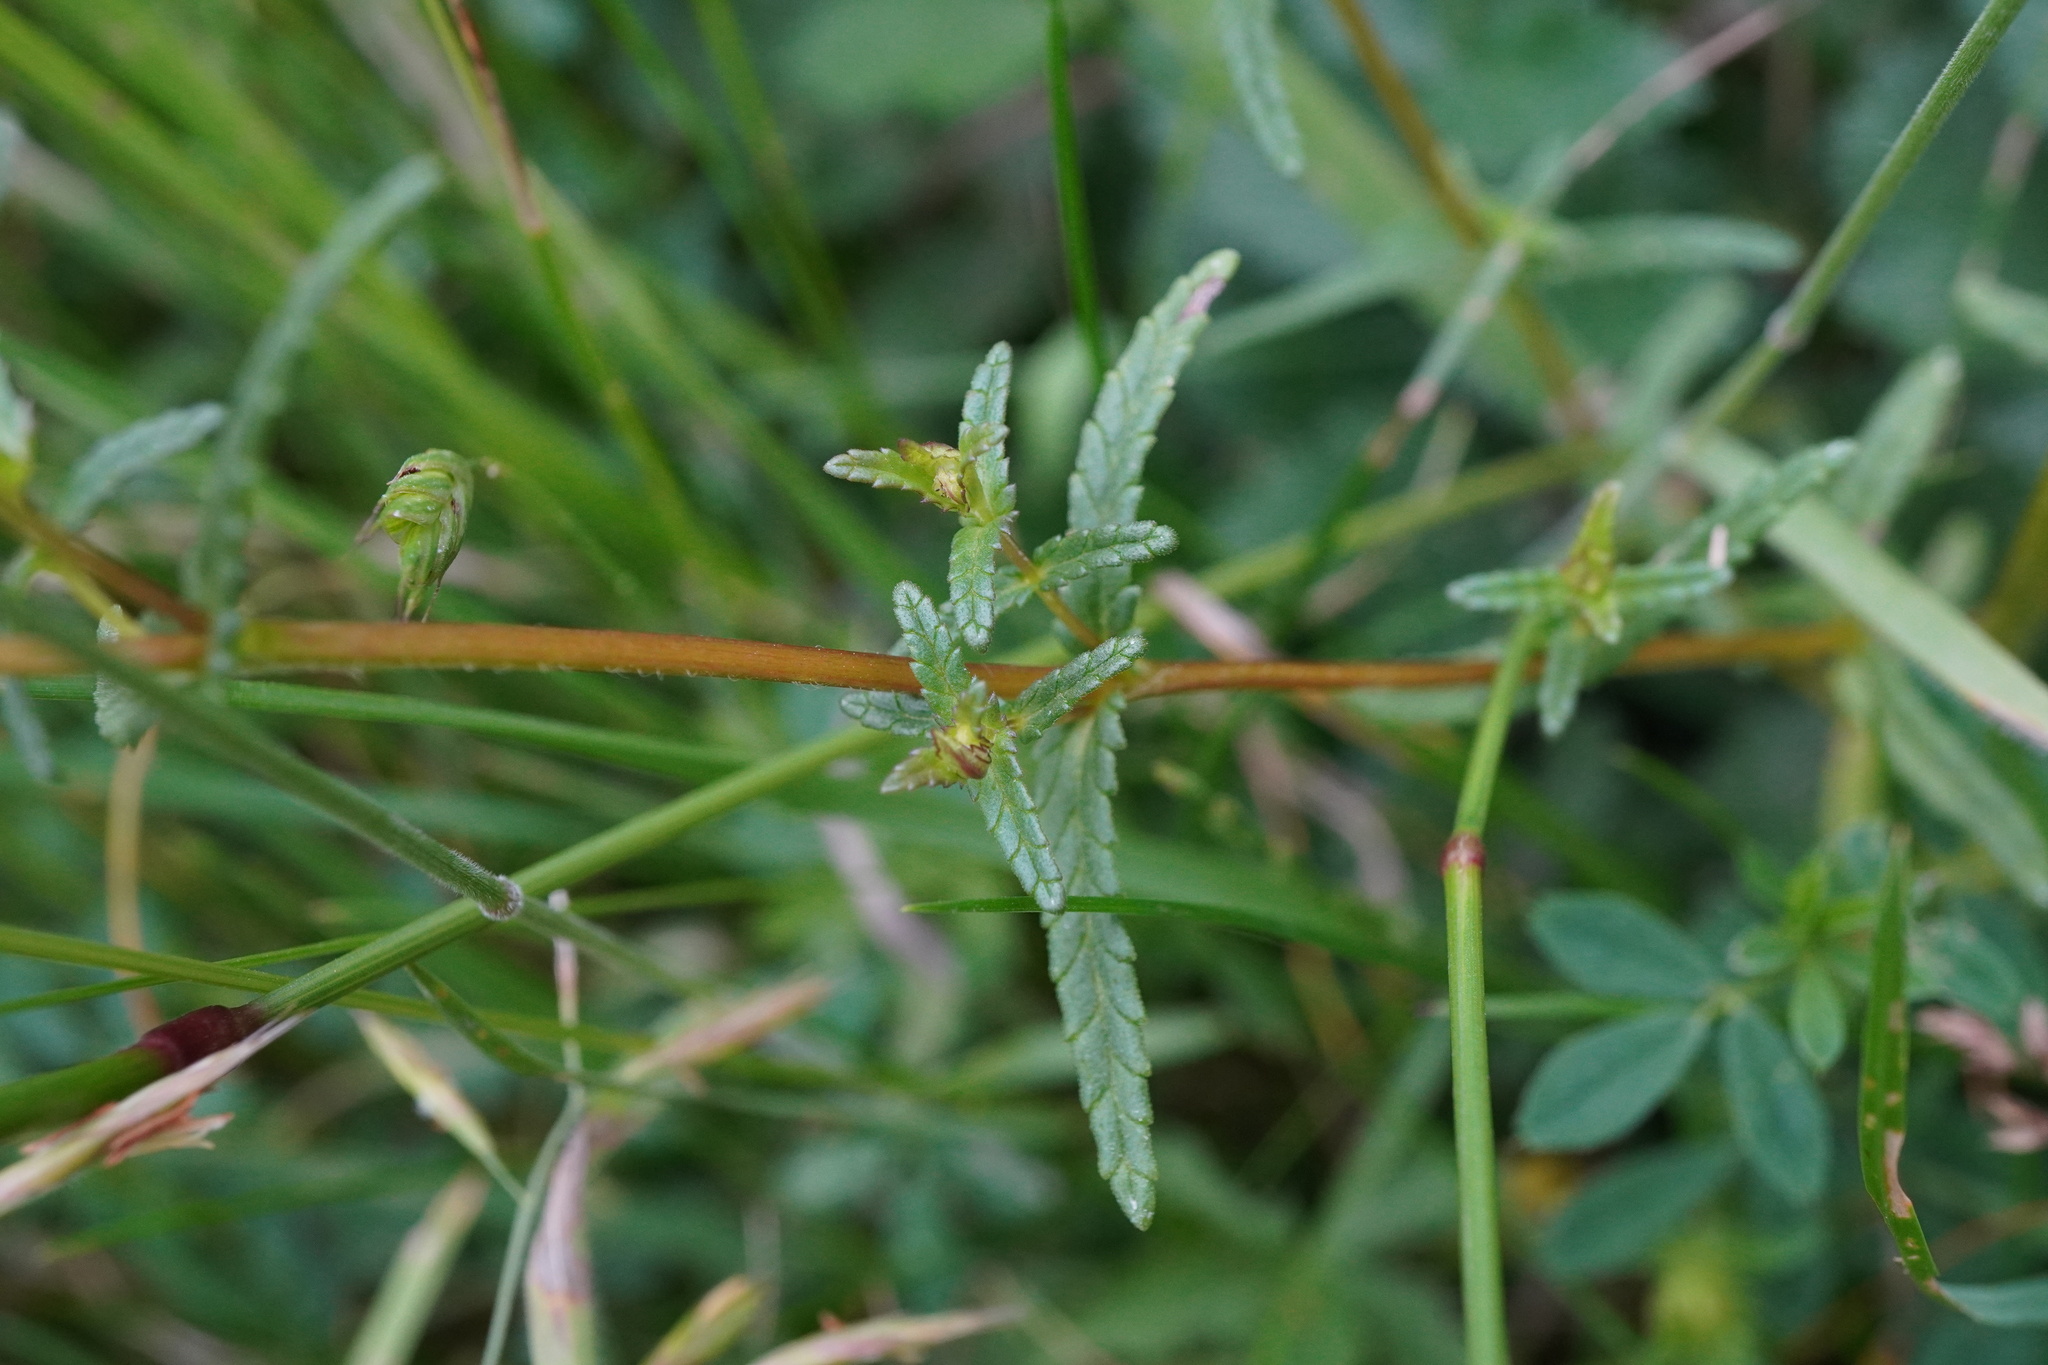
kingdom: Plantae
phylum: Tracheophyta
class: Magnoliopsida
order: Lamiales
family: Orobanchaceae
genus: Rhinanthus
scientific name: Rhinanthus minor
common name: Yellow-rattle
